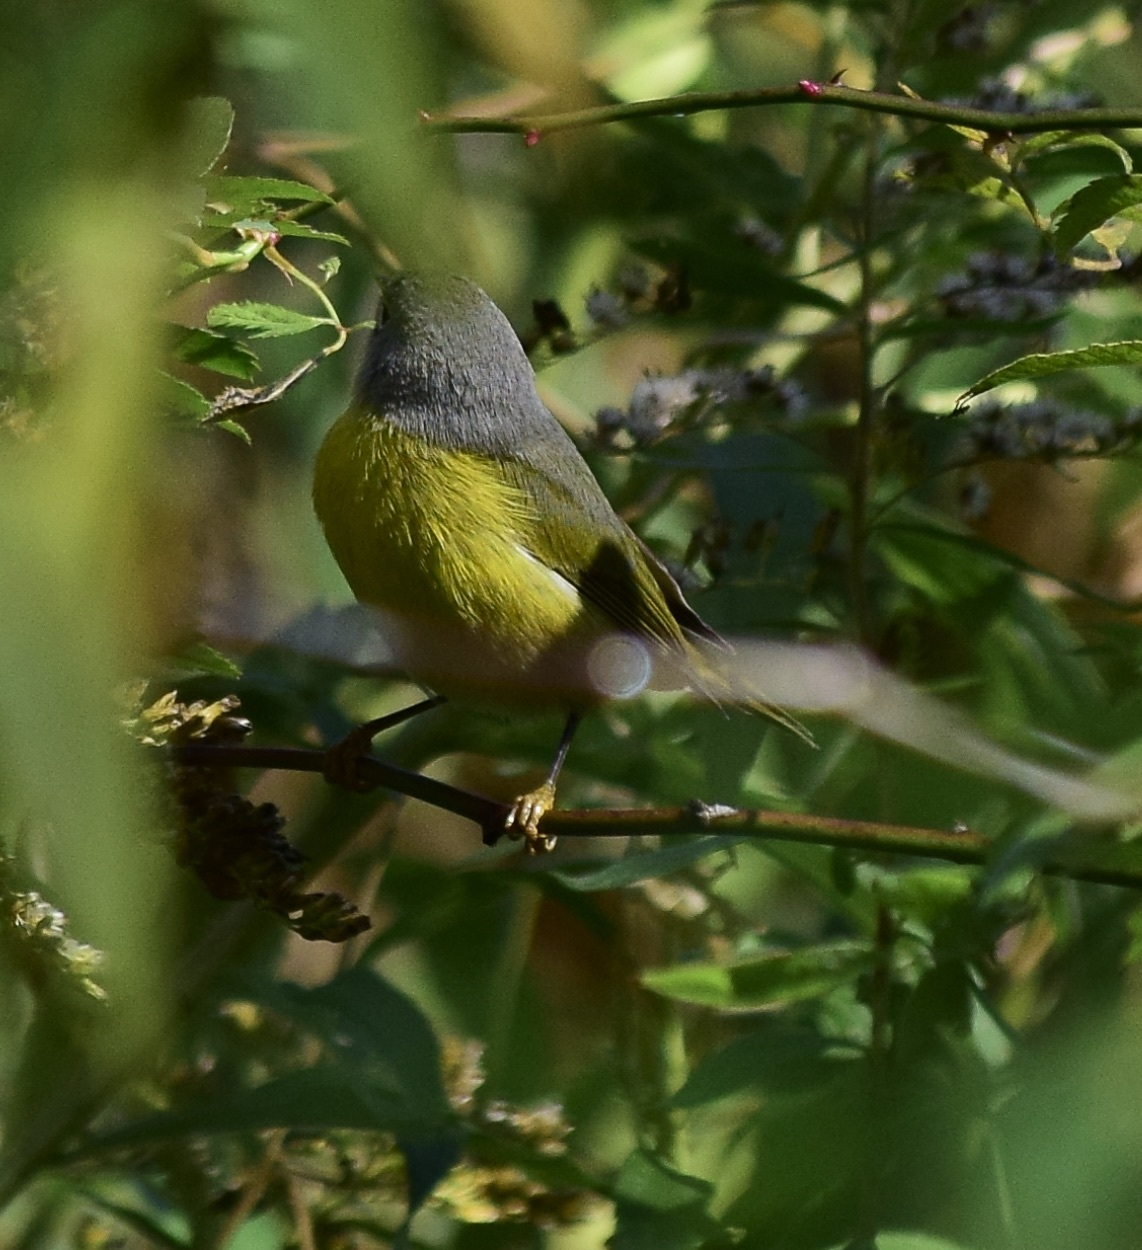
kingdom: Animalia
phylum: Chordata
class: Aves
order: Passeriformes
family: Parulidae
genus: Leiothlypis
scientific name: Leiothlypis ruficapilla
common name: Nashville warbler
